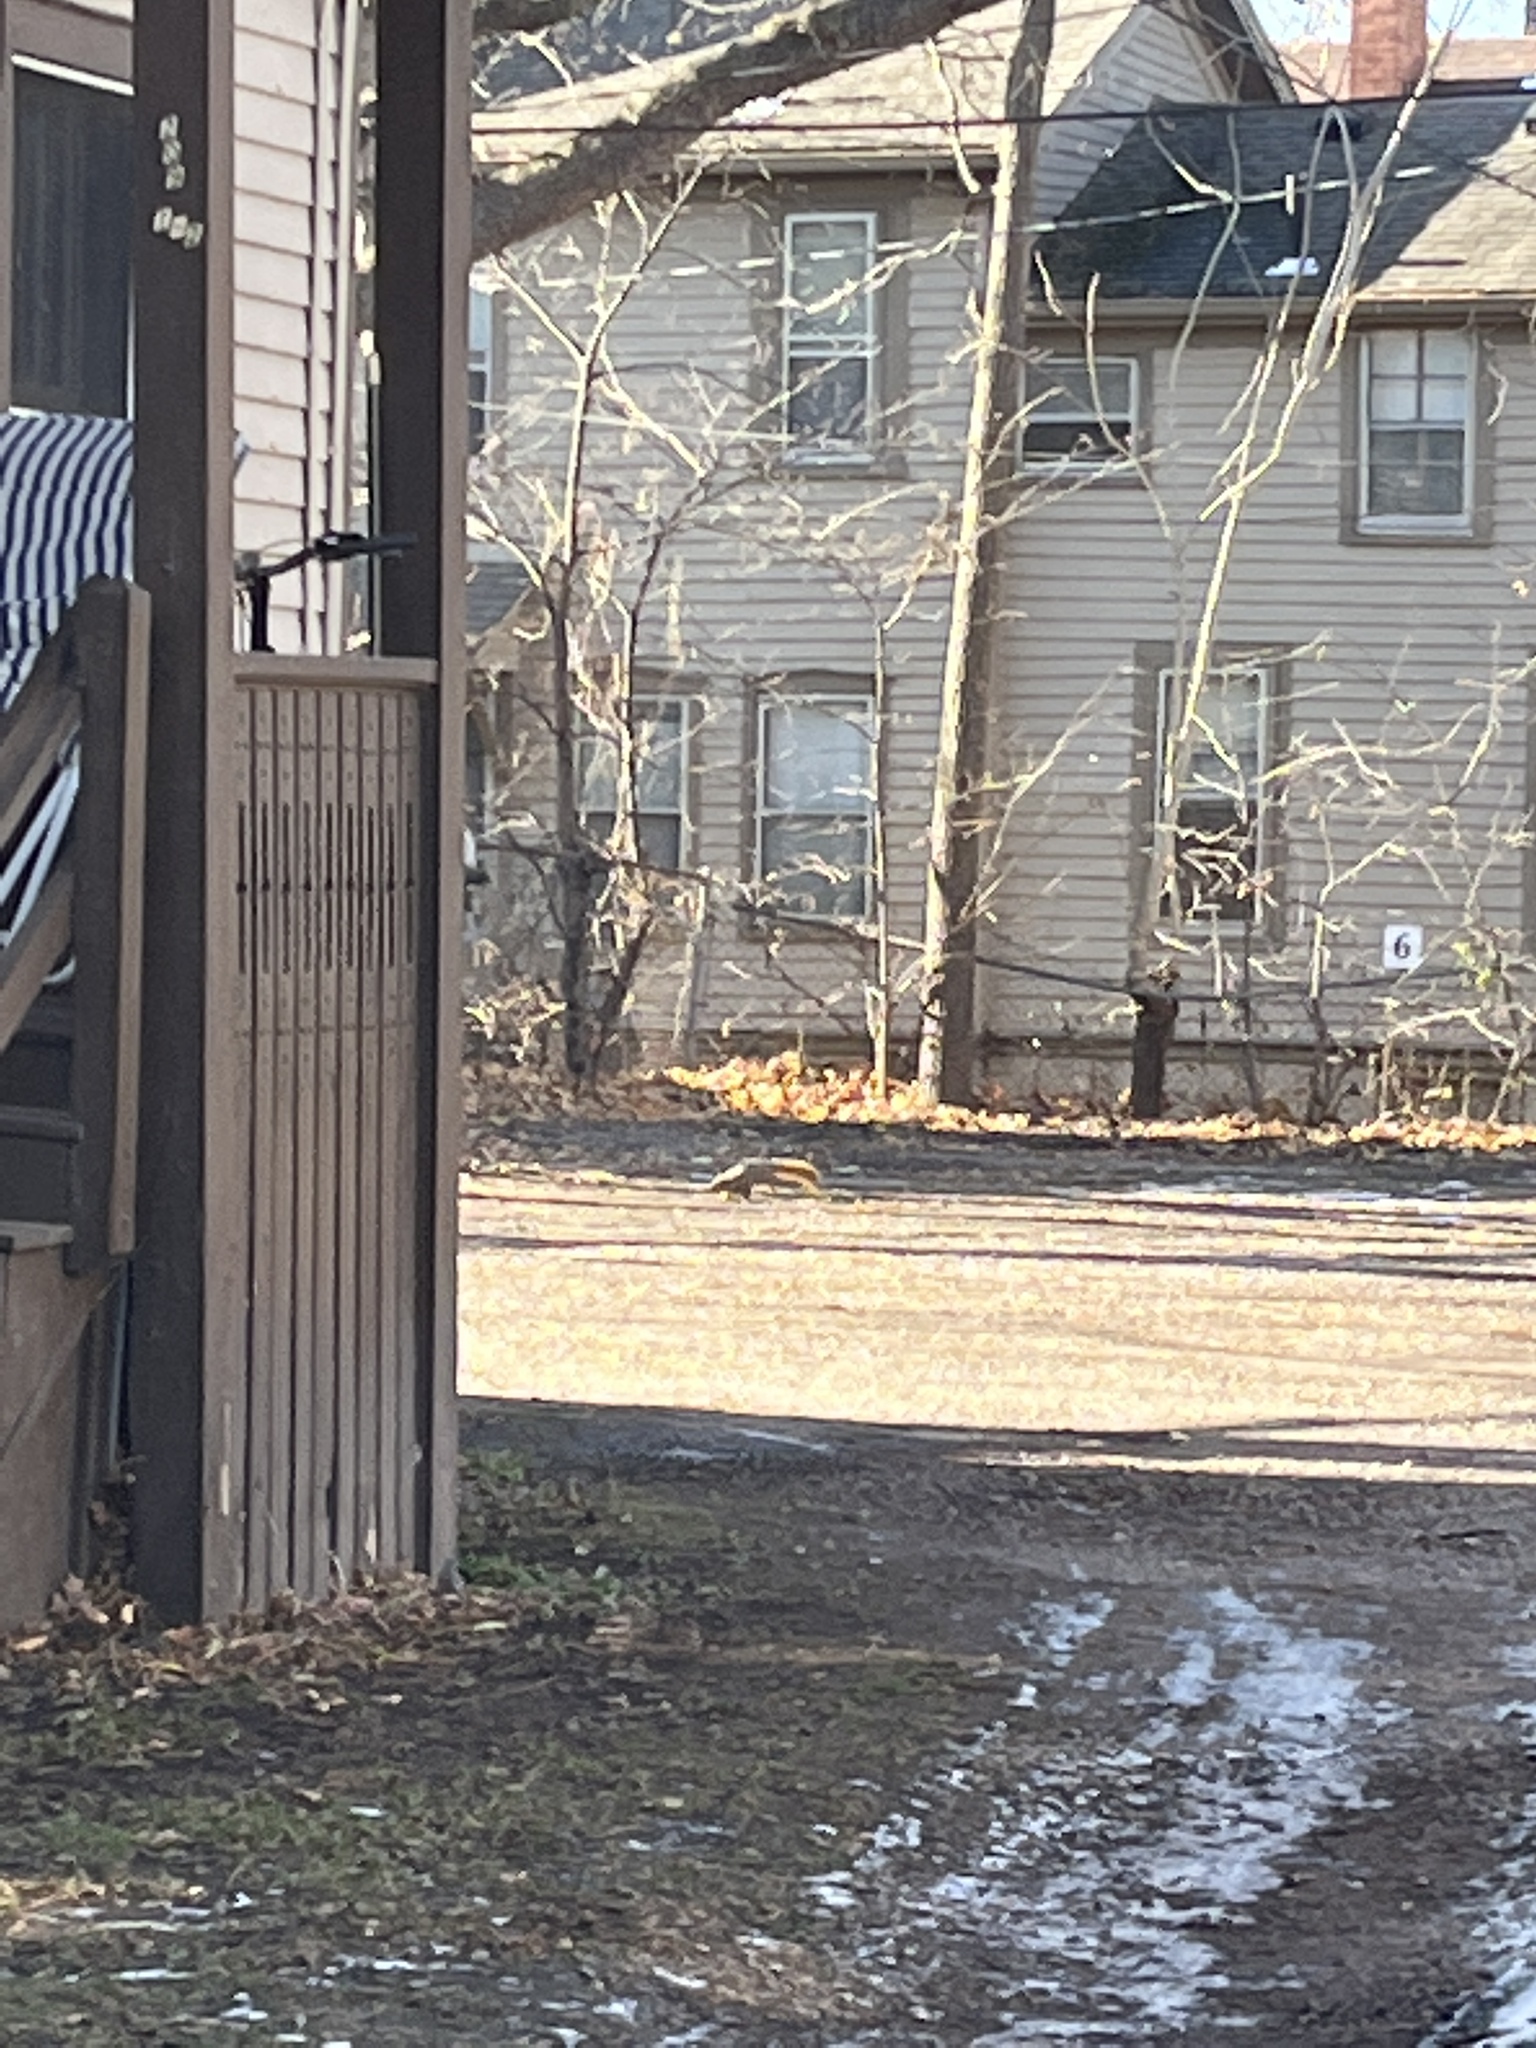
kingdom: Animalia
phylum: Chordata
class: Mammalia
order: Rodentia
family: Sciuridae
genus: Sciurus
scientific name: Sciurus niger
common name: Fox squirrel
